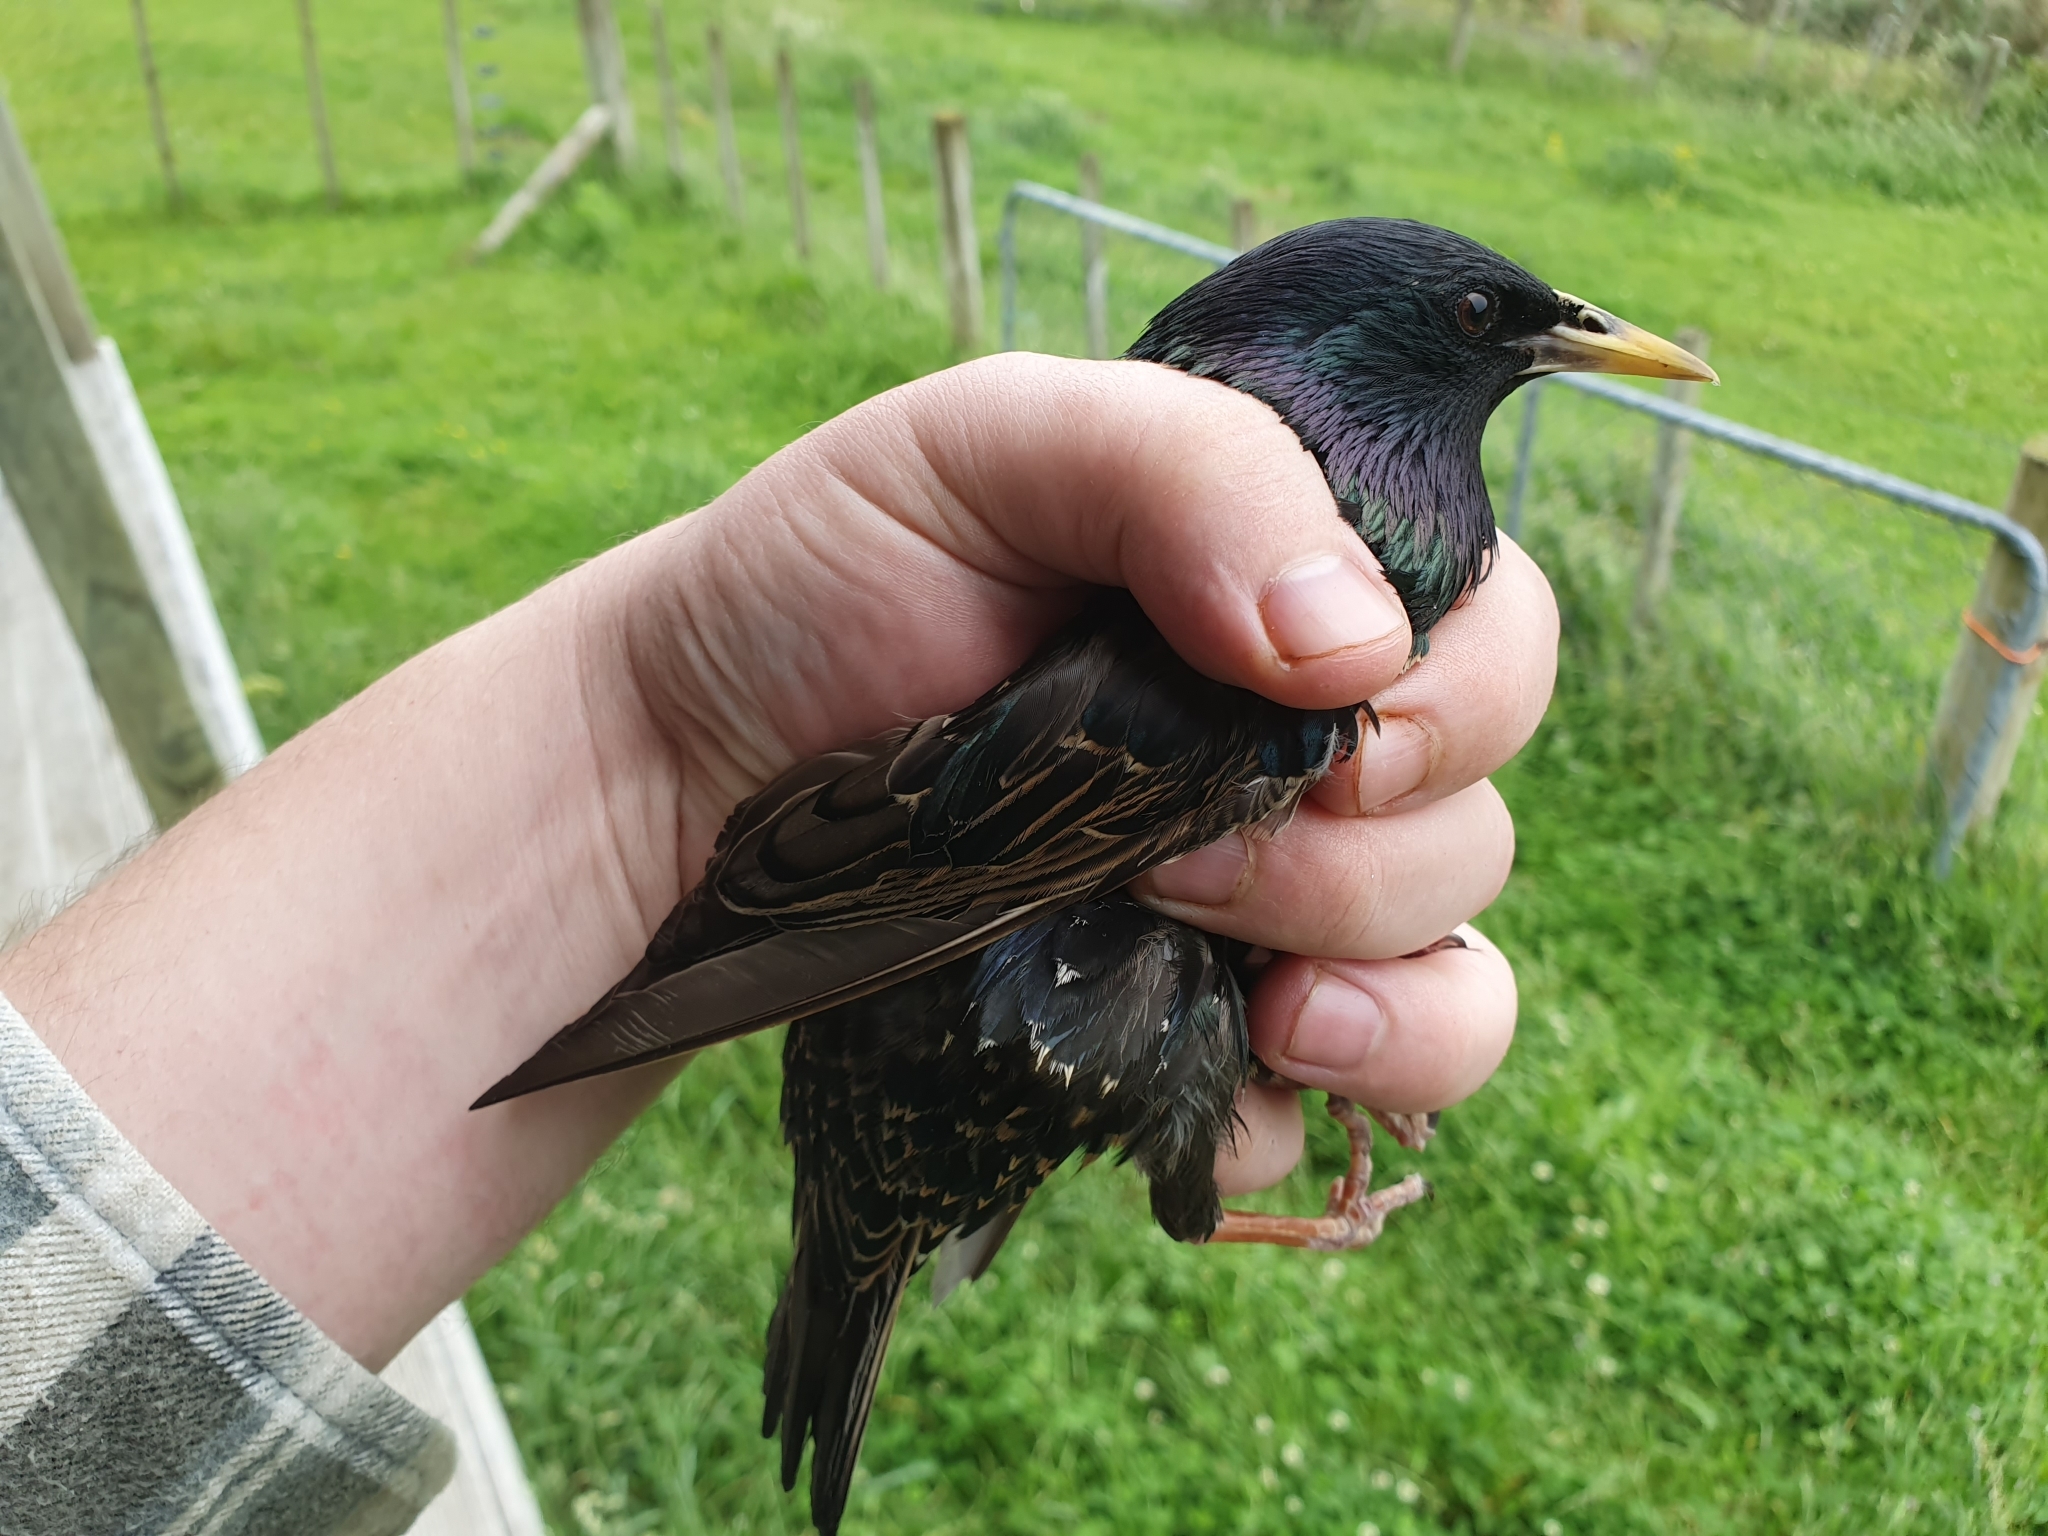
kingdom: Animalia
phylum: Chordata
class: Aves
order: Passeriformes
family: Sturnidae
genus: Sturnus
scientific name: Sturnus vulgaris
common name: Common starling
